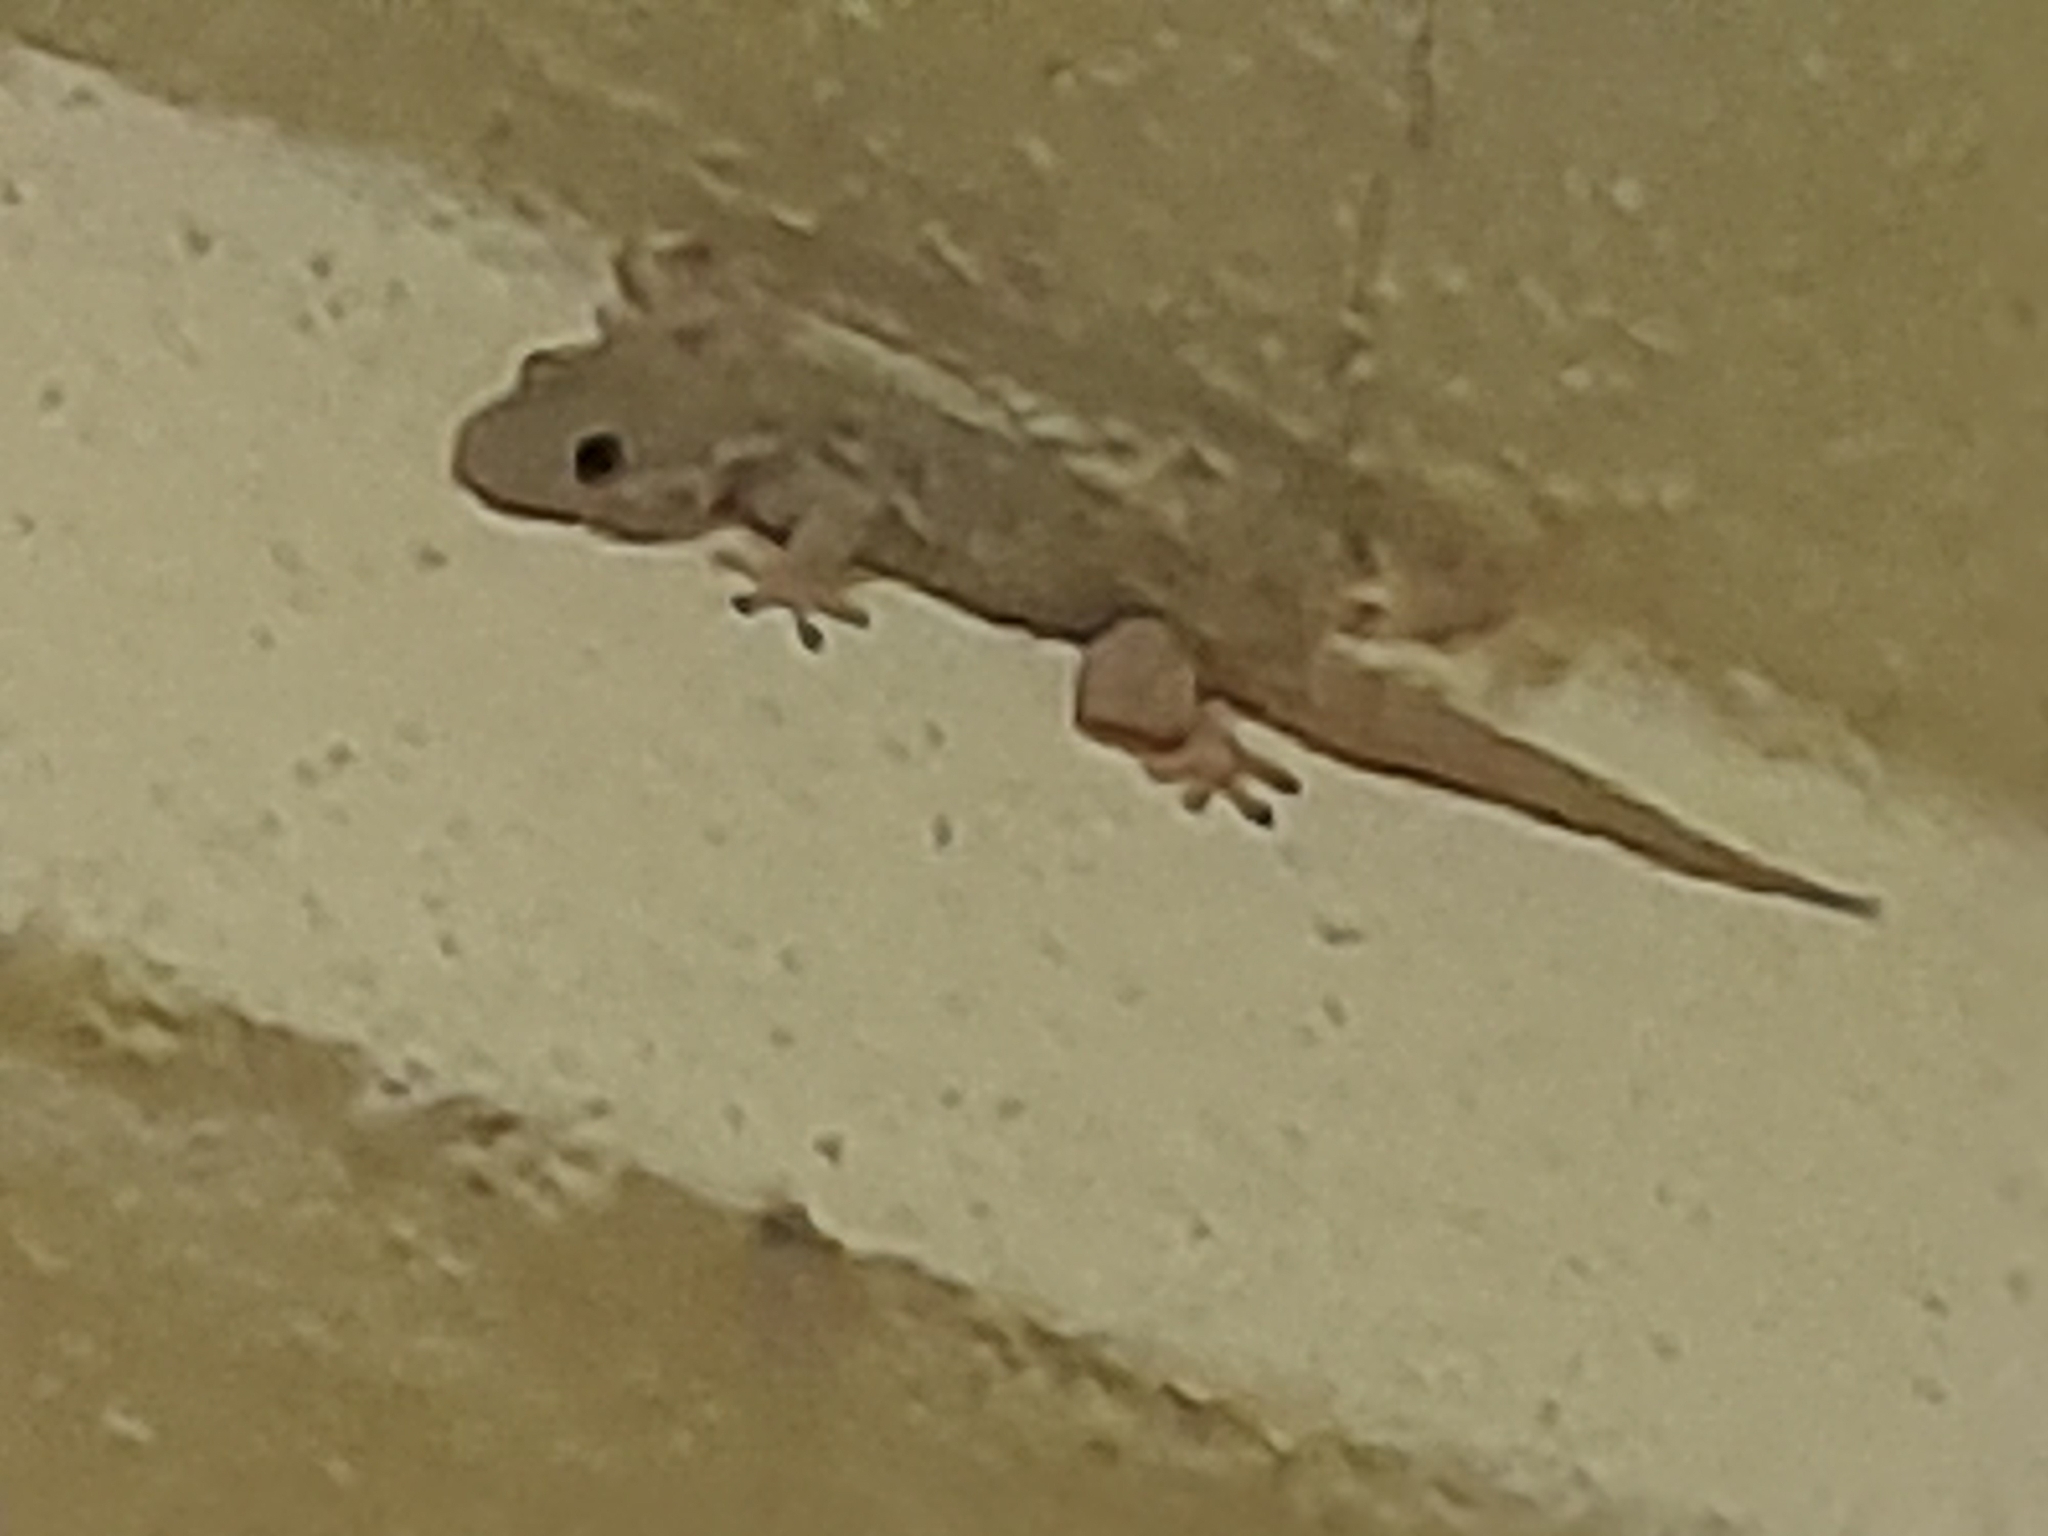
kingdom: Animalia
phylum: Chordata
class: Squamata
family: Phyllodactylidae
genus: Tarentola
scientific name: Tarentola mauritanica
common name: Moorish gecko
